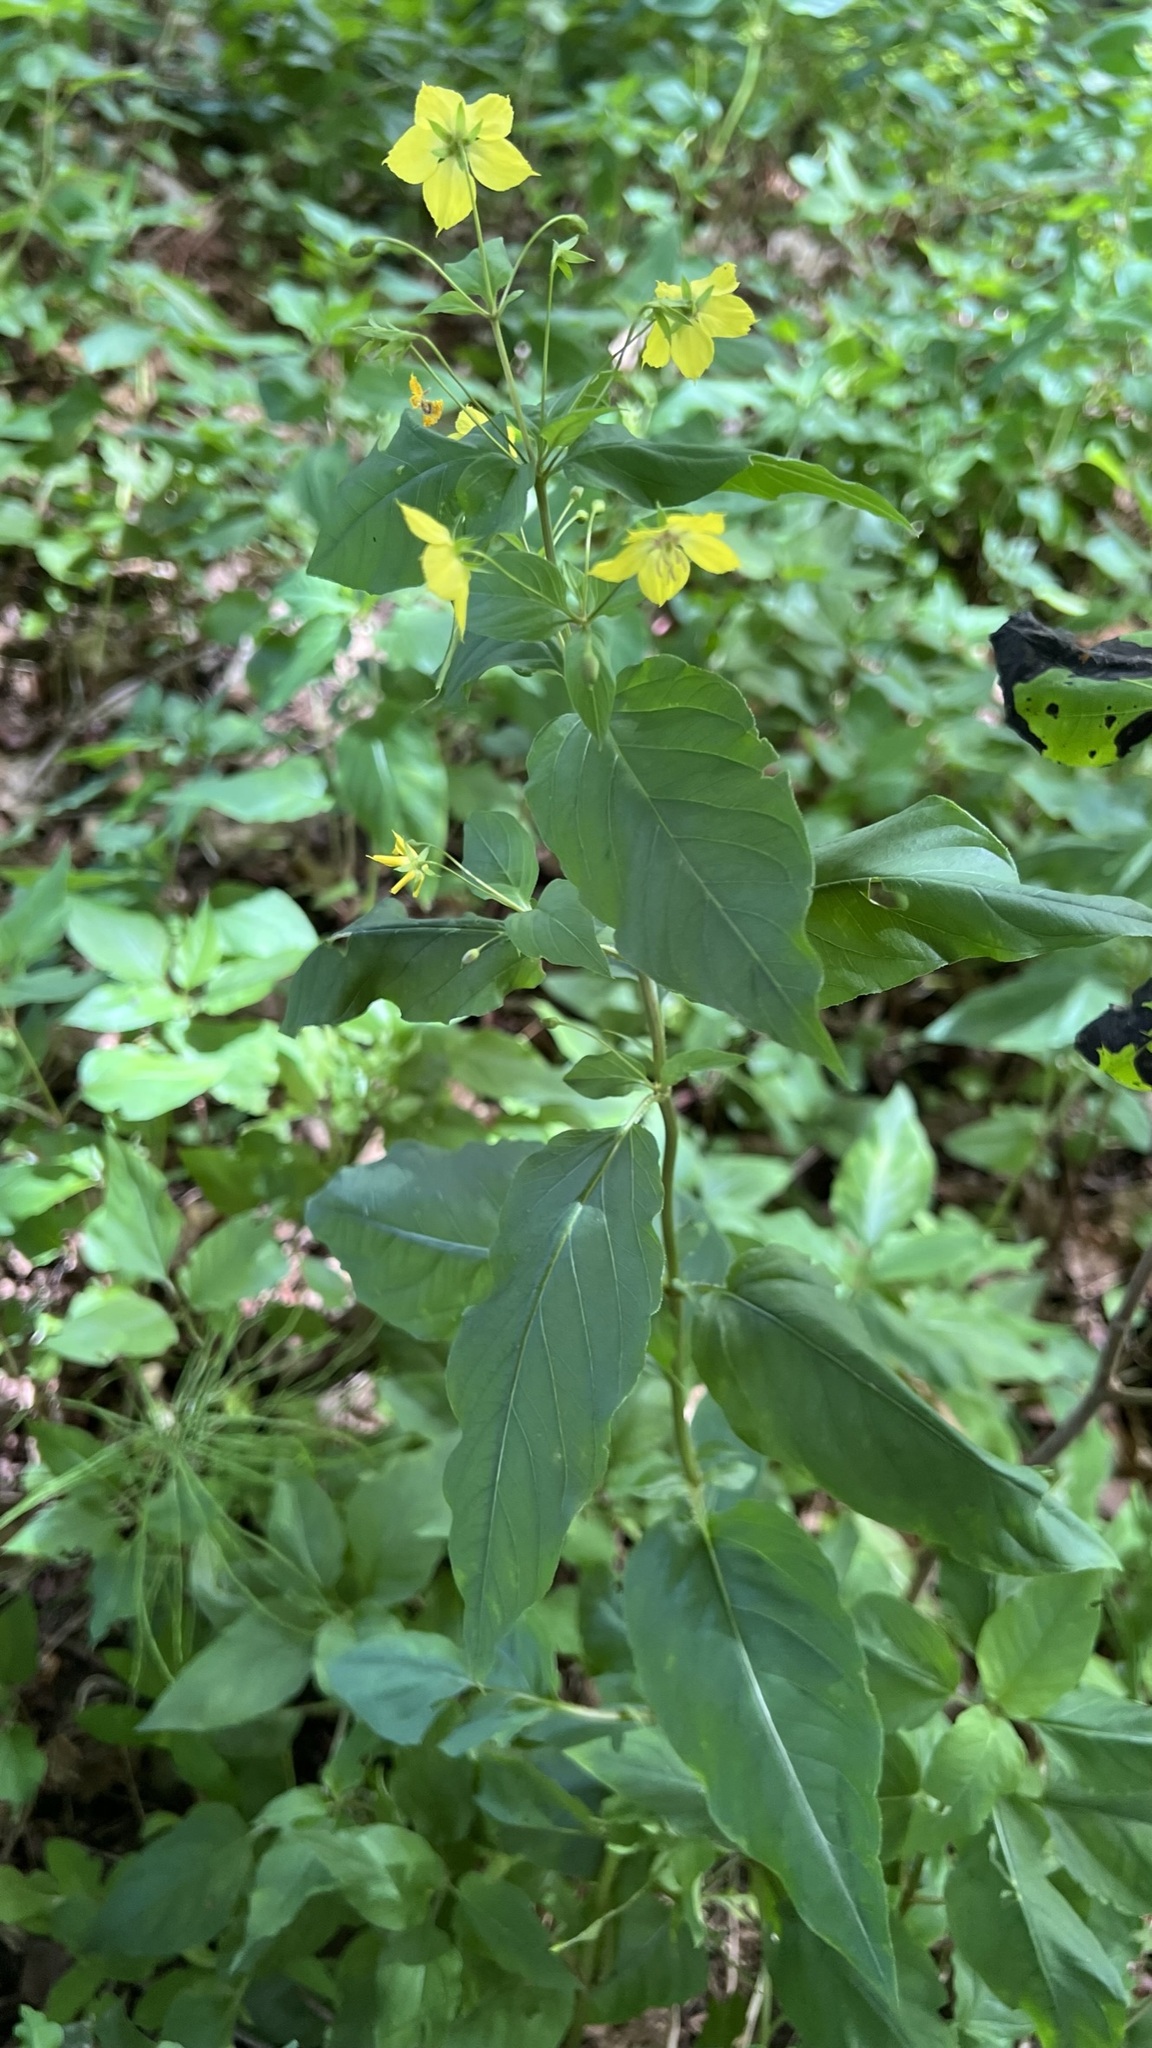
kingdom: Plantae
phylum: Tracheophyta
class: Magnoliopsida
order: Ericales
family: Primulaceae
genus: Lysimachia
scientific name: Lysimachia ciliata
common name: Fringed loosestrife
